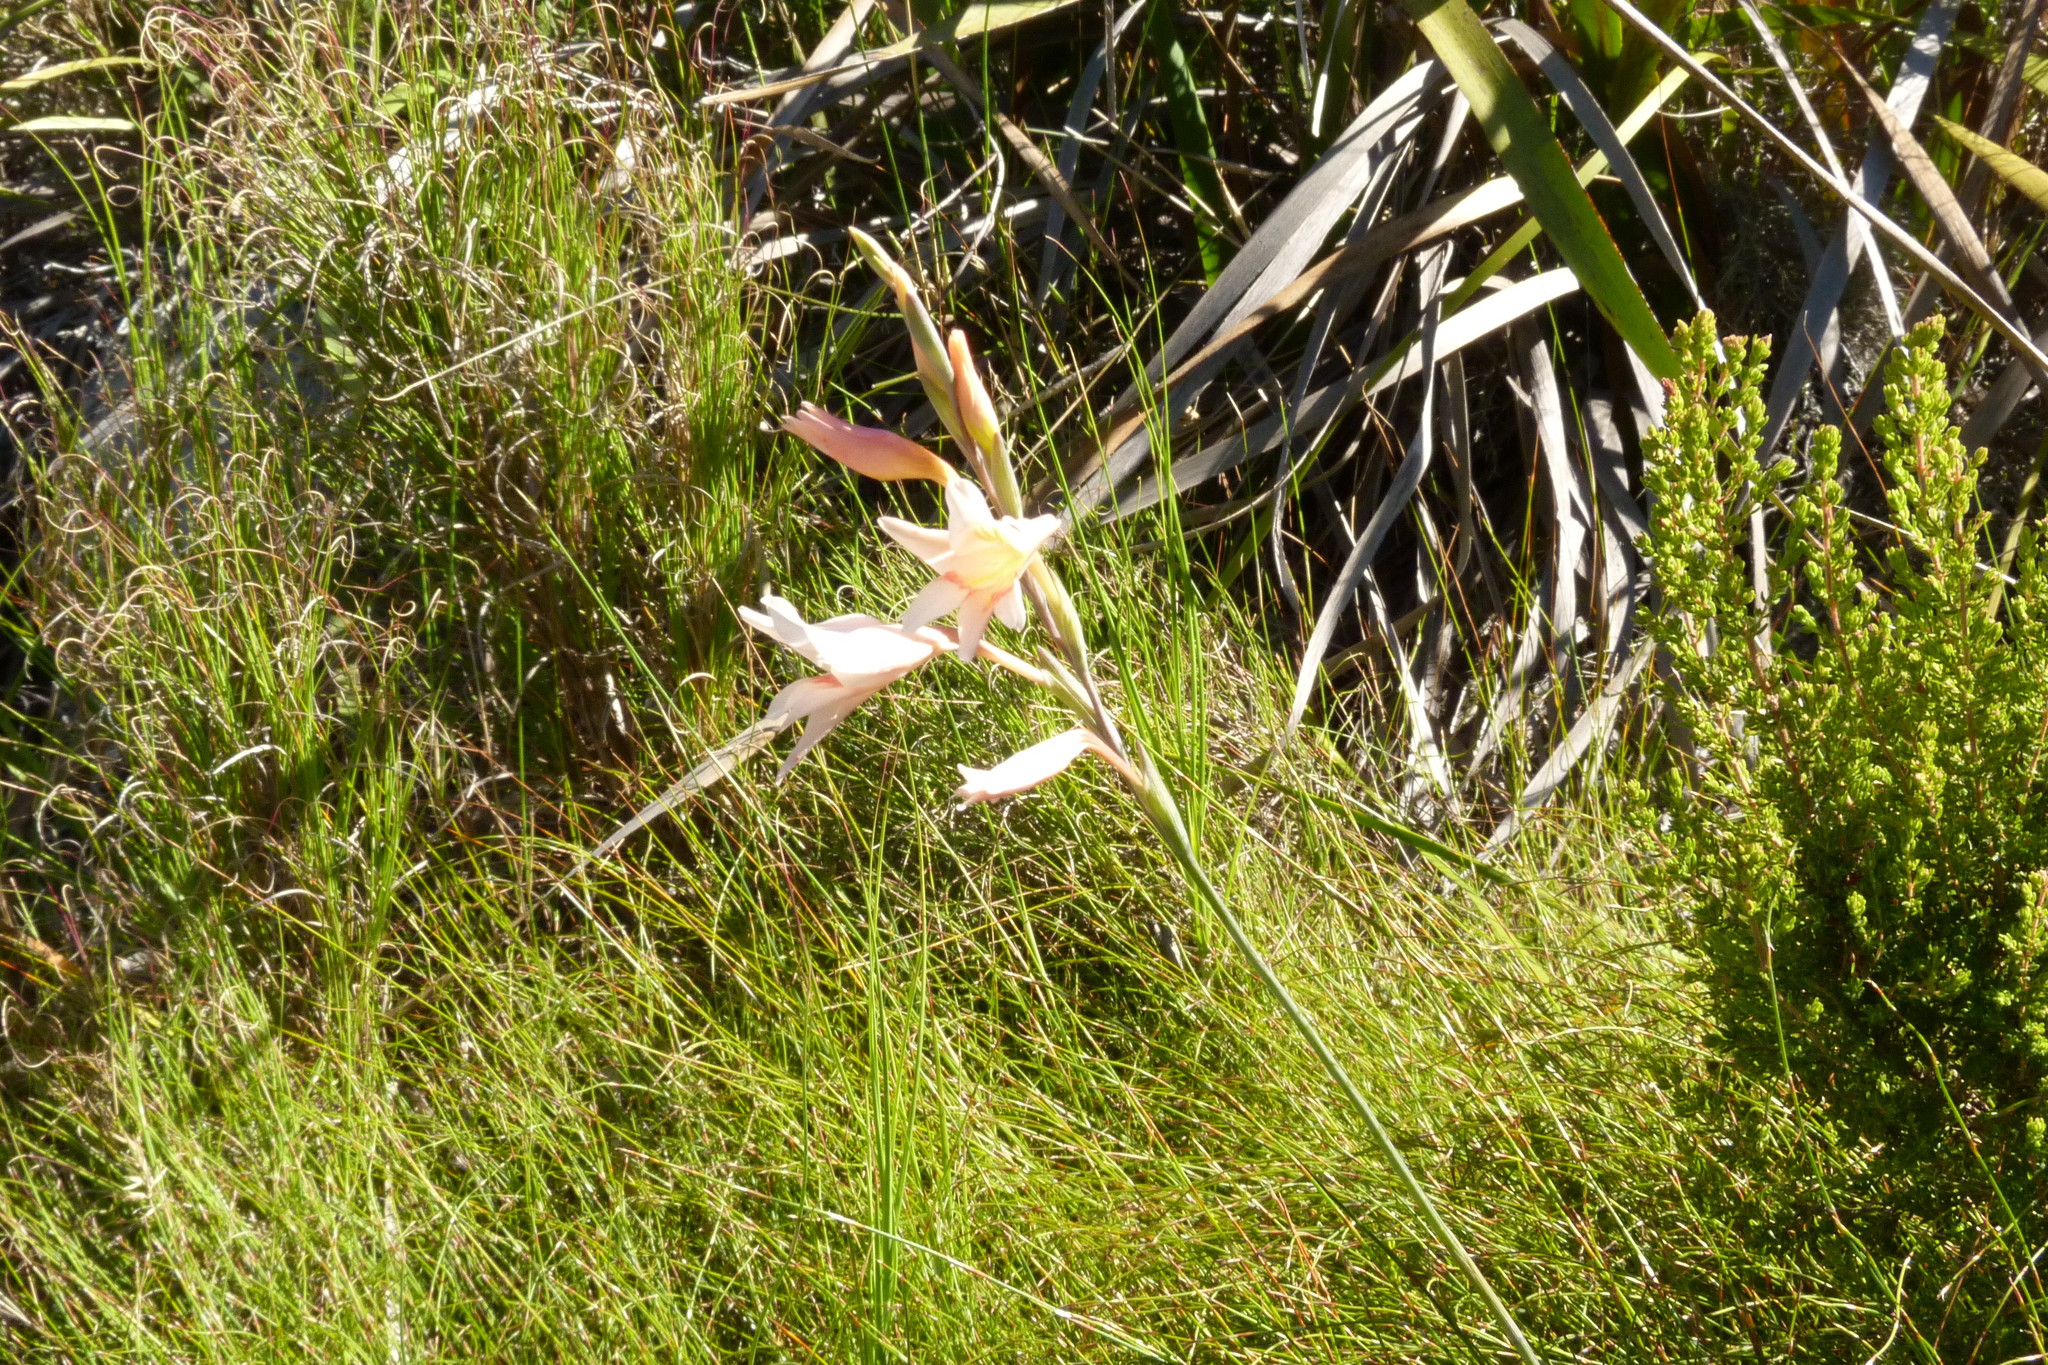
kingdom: Plantae
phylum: Tracheophyta
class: Liliopsida
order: Asparagales
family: Iridaceae
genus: Gladiolus
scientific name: Gladiolus monticola
